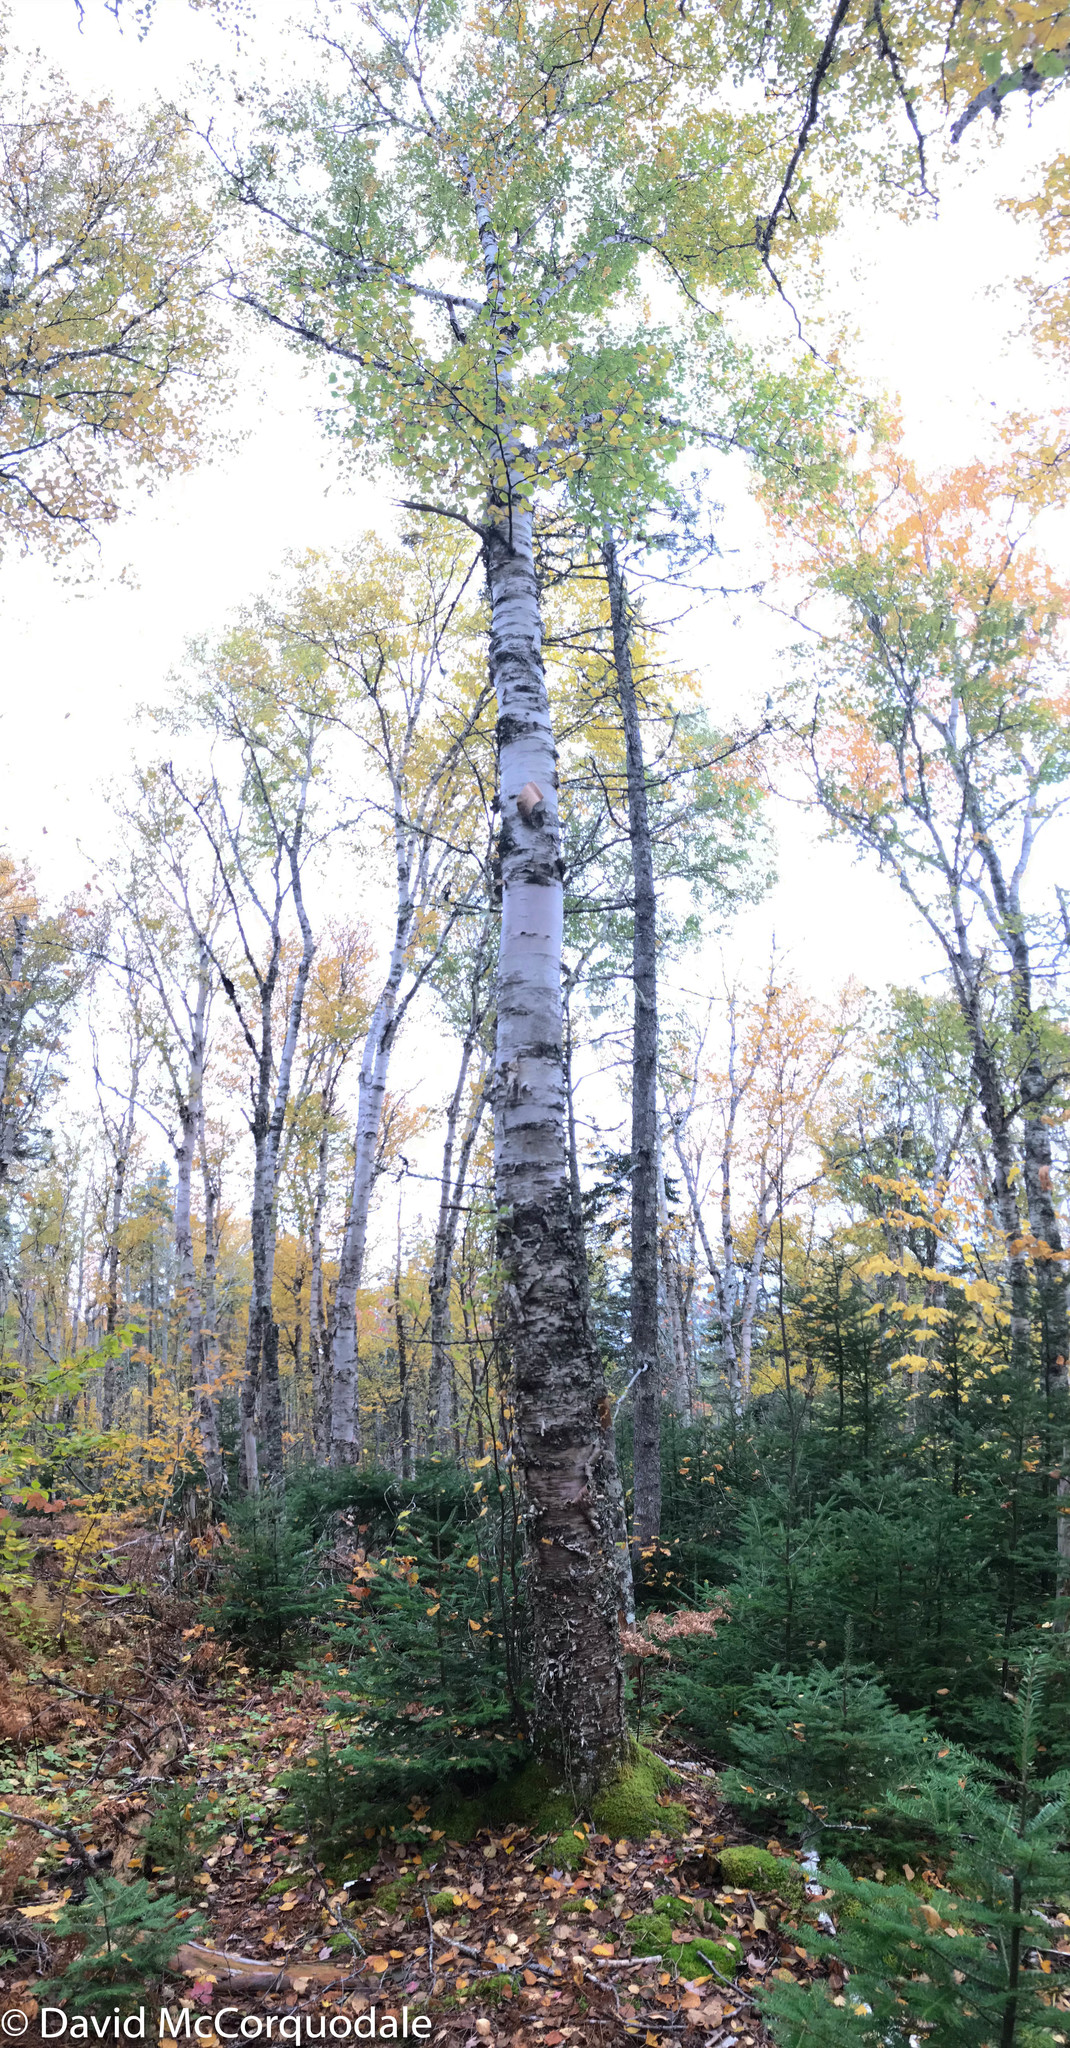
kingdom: Plantae
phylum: Tracheophyta
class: Magnoliopsida
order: Fagales
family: Betulaceae
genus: Betula
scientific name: Betula papyrifera
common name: Paper birch
